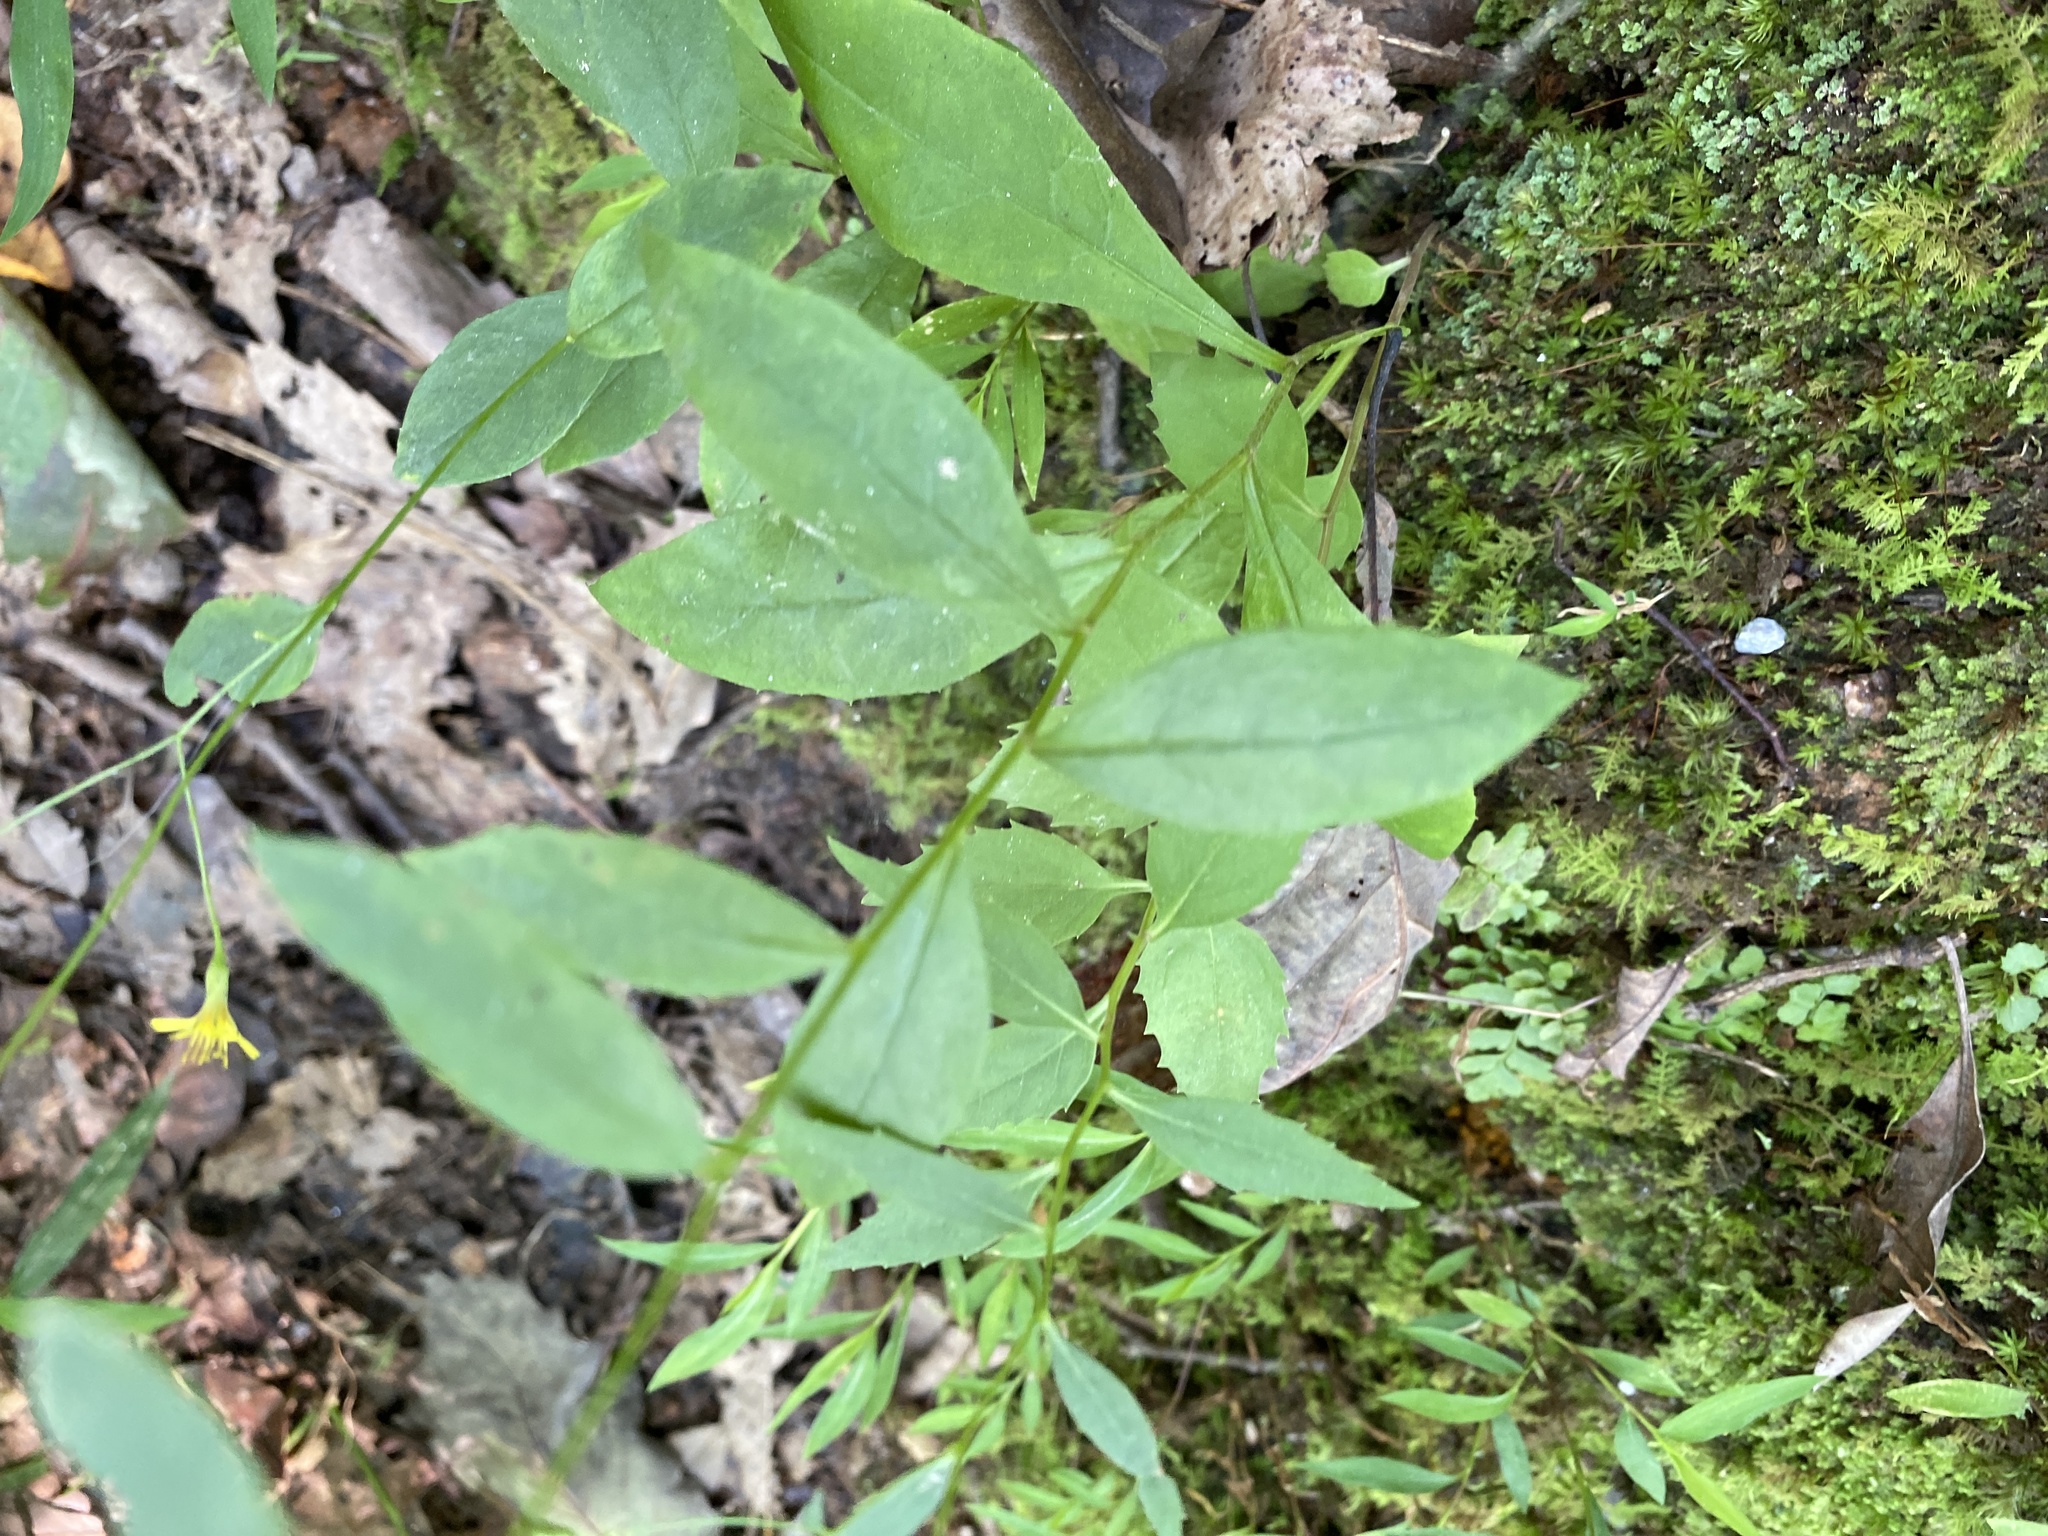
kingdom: Plantae
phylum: Tracheophyta
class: Magnoliopsida
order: Asterales
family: Asteraceae
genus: Hieracium
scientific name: Hieracium paniculatum
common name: Allegheny hawkweed
